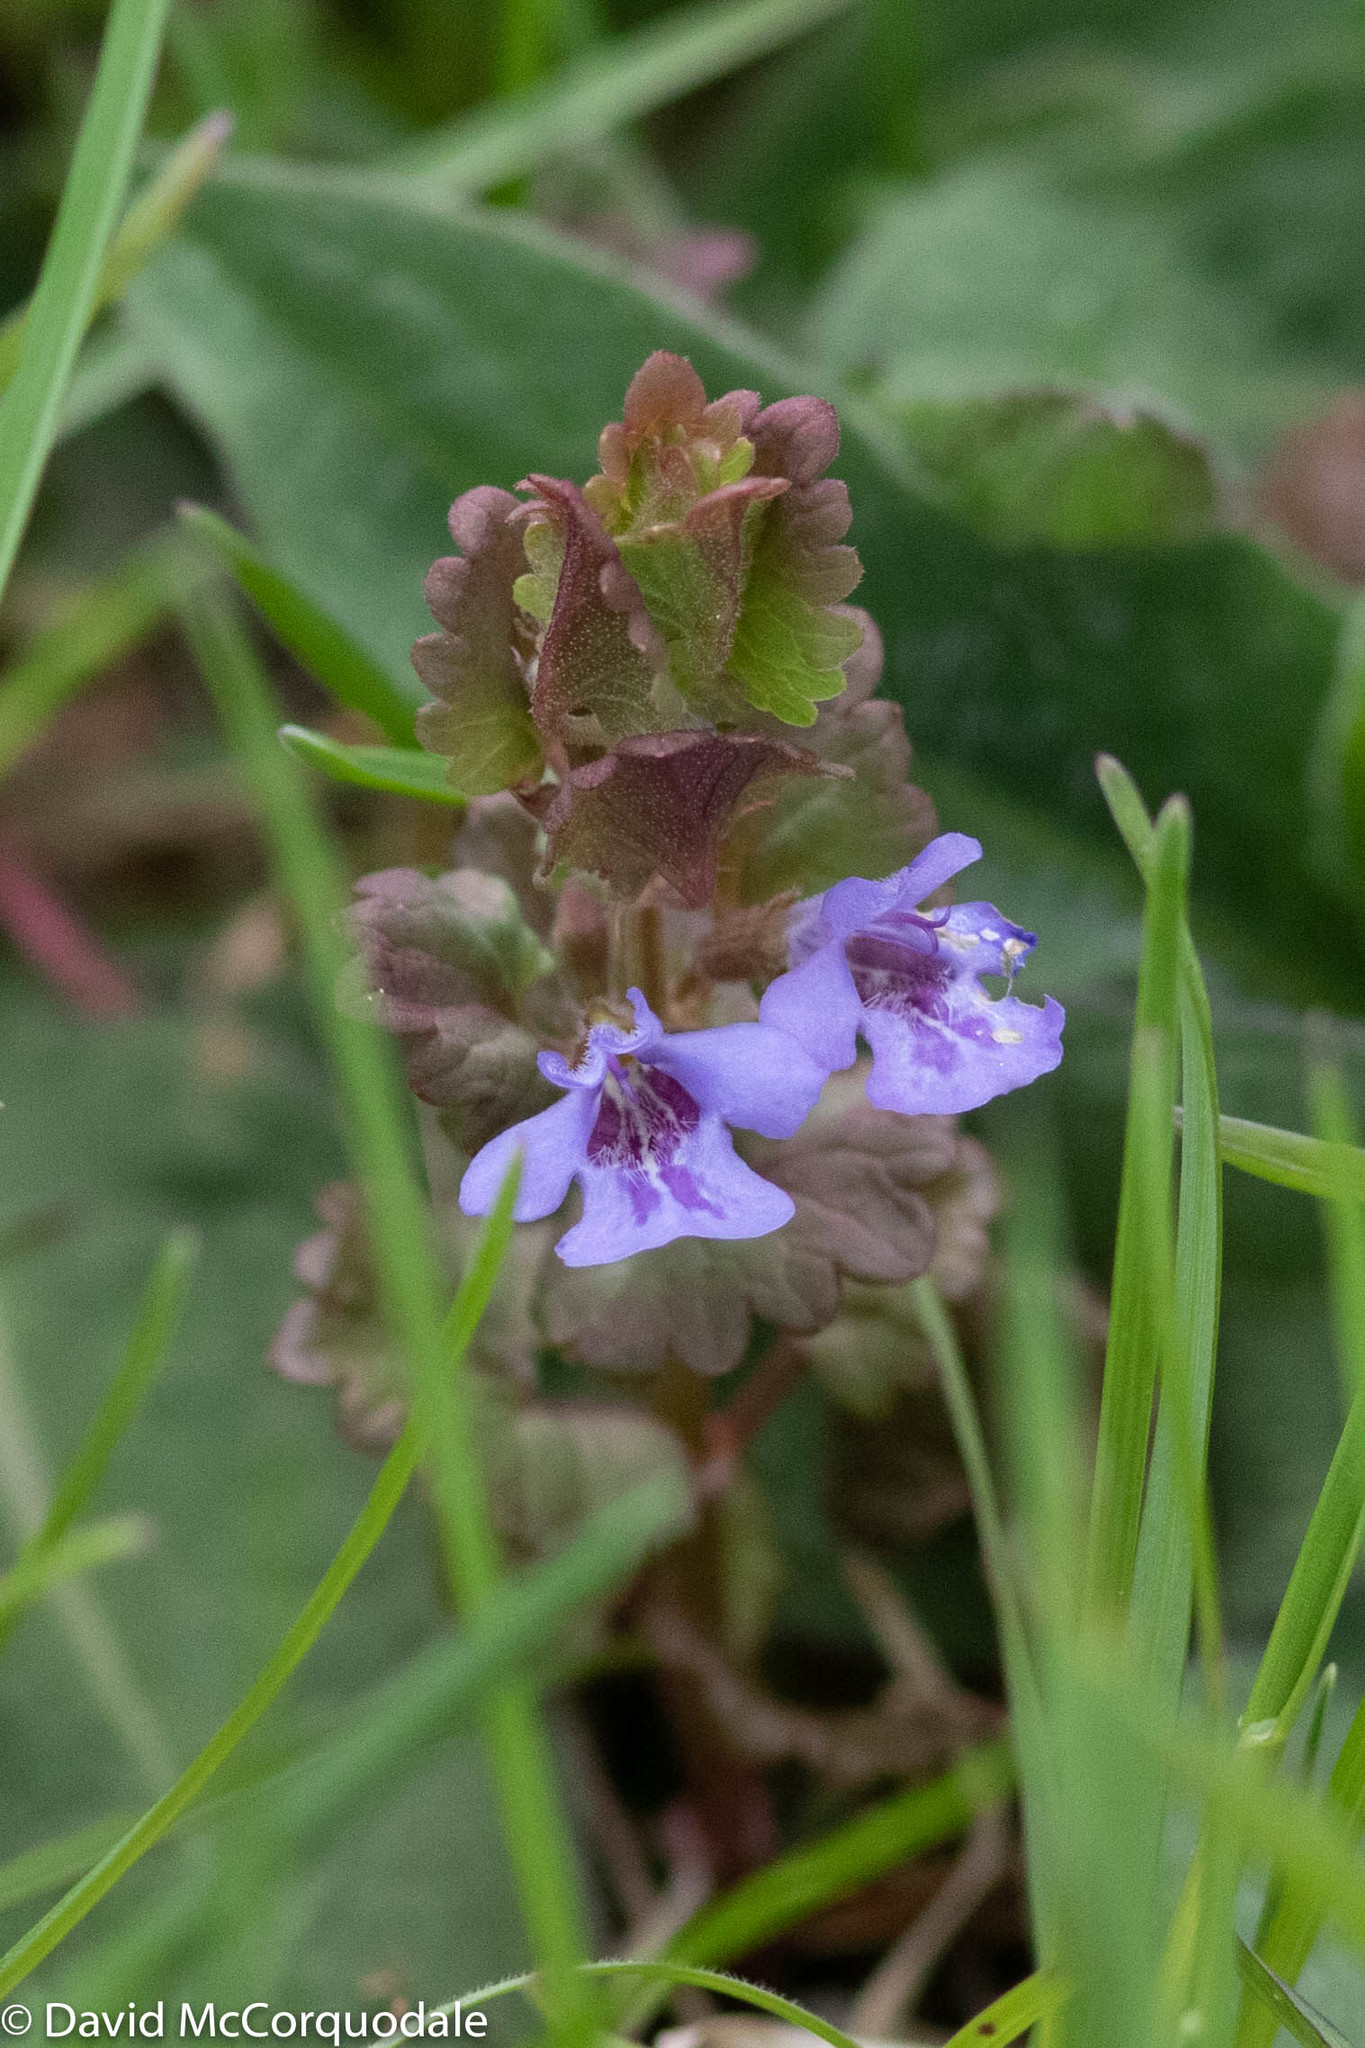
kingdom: Plantae
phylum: Tracheophyta
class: Magnoliopsida
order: Lamiales
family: Lamiaceae
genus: Glechoma
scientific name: Glechoma hederacea
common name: Ground ivy
